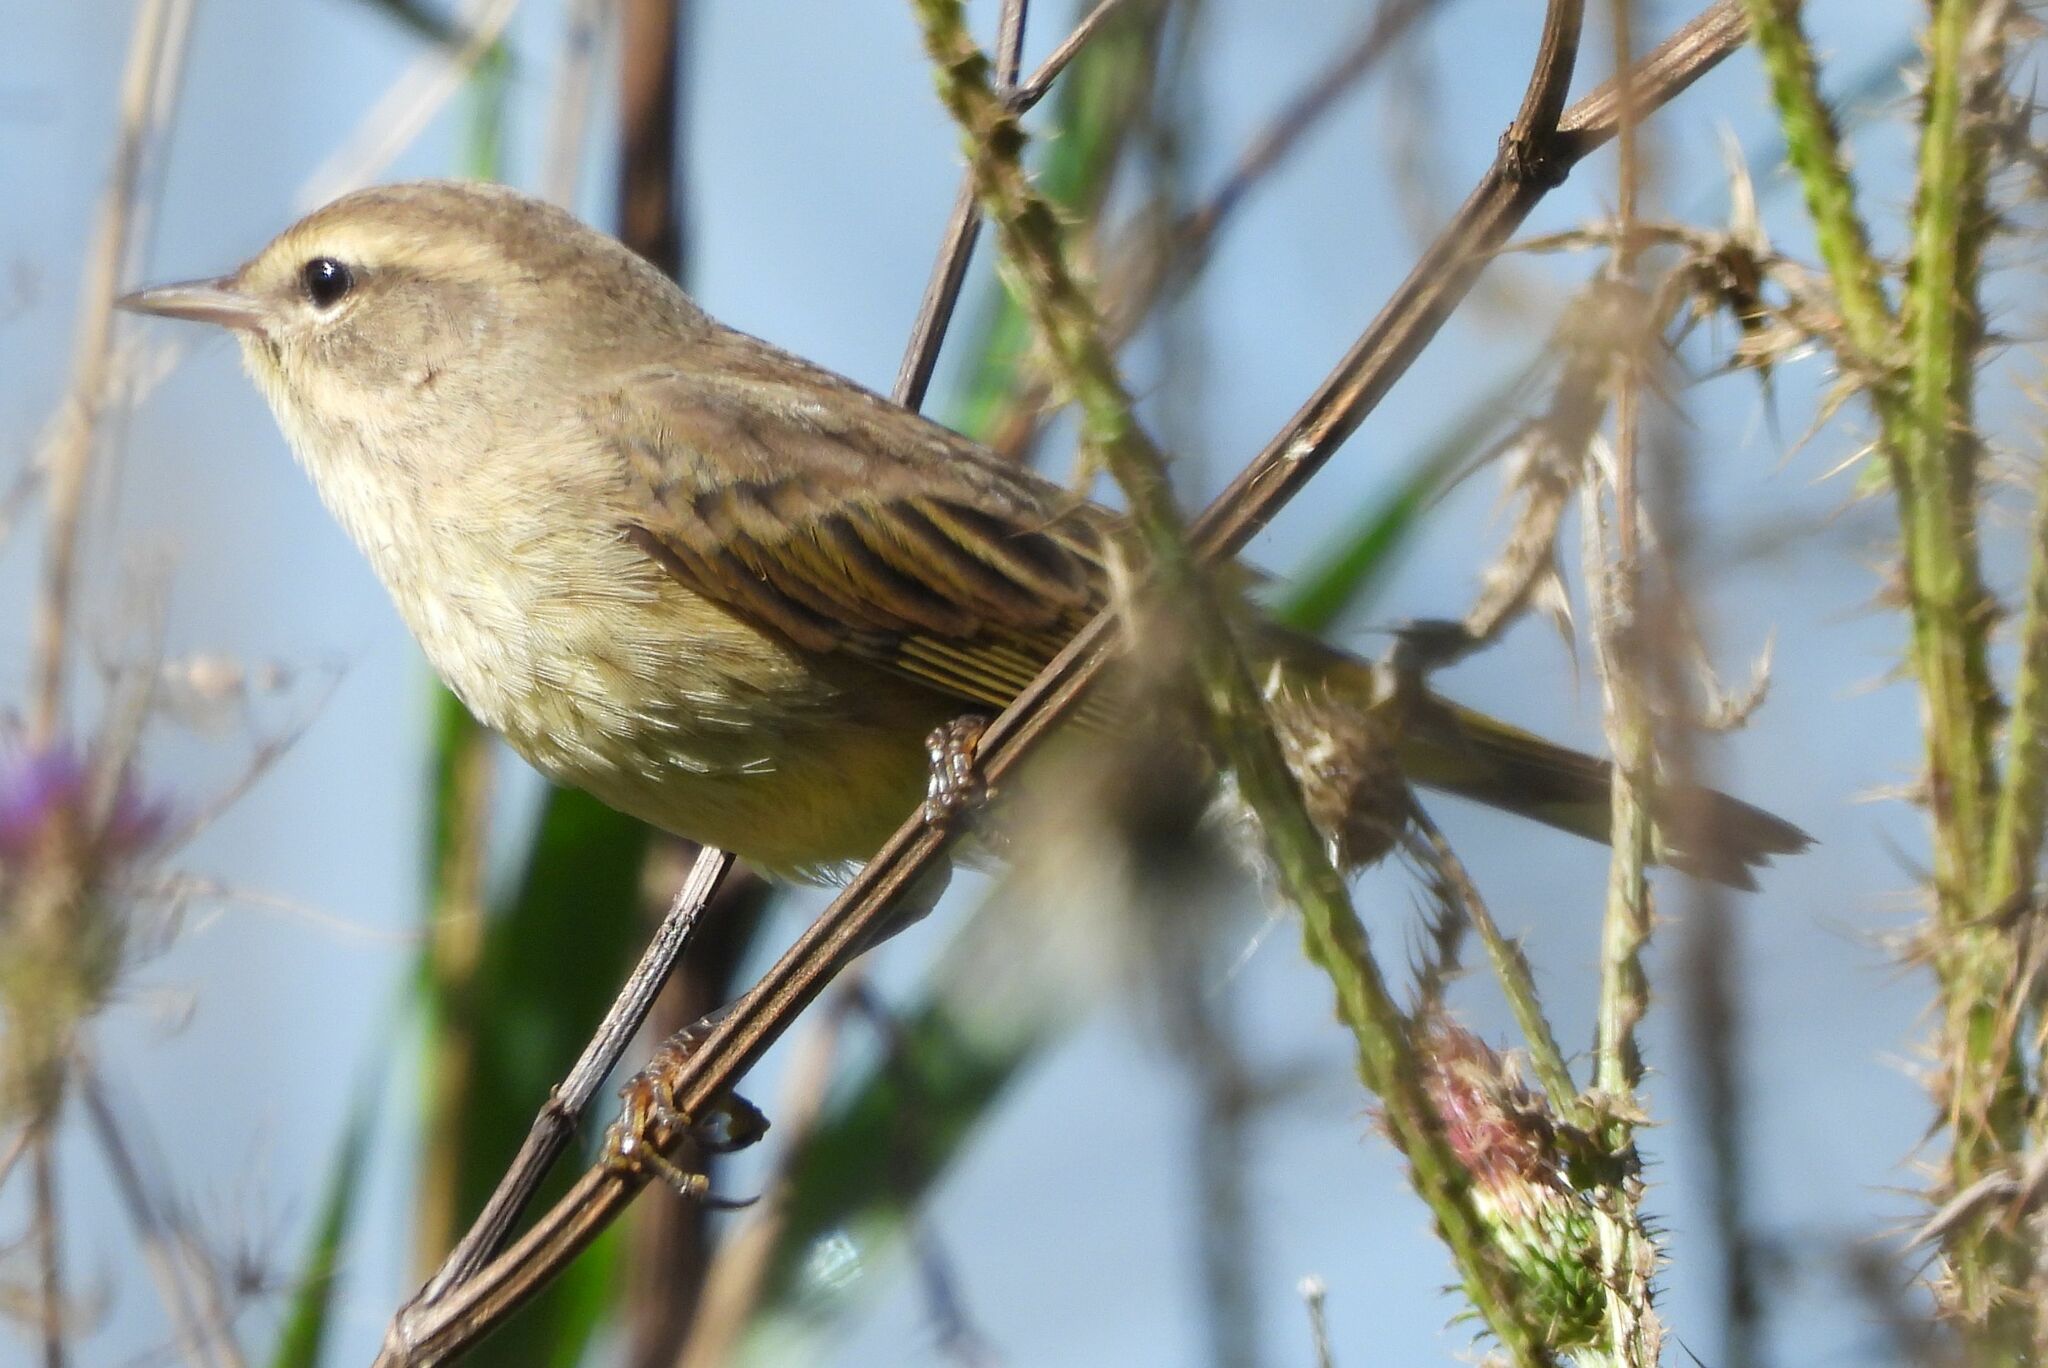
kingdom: Animalia
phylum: Chordata
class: Aves
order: Passeriformes
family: Parulidae
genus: Setophaga
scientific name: Setophaga palmarum
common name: Palm warbler
